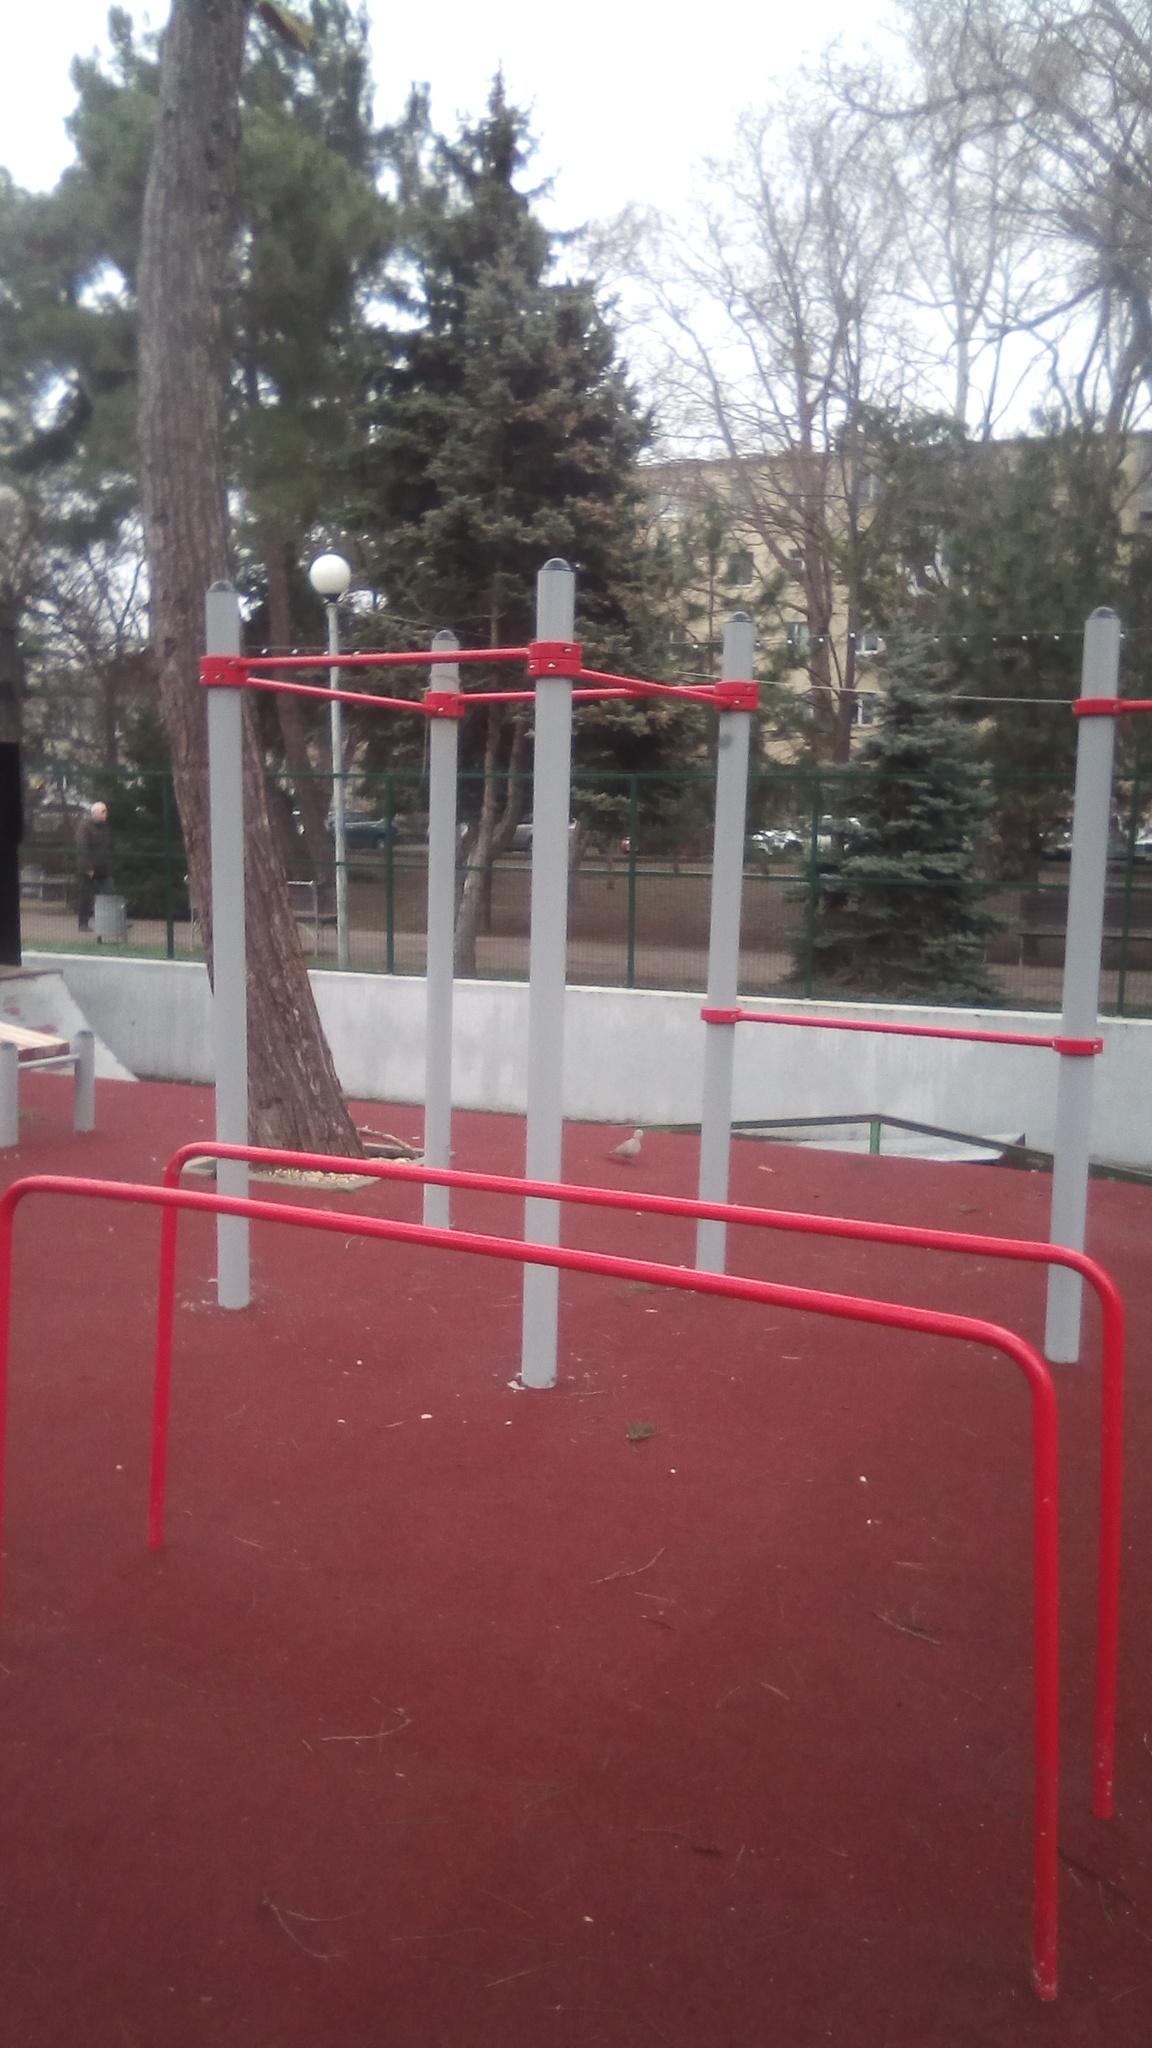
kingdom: Animalia
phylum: Chordata
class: Aves
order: Columbiformes
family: Columbidae
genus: Streptopelia
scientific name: Streptopelia decaocto
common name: Eurasian collared dove
